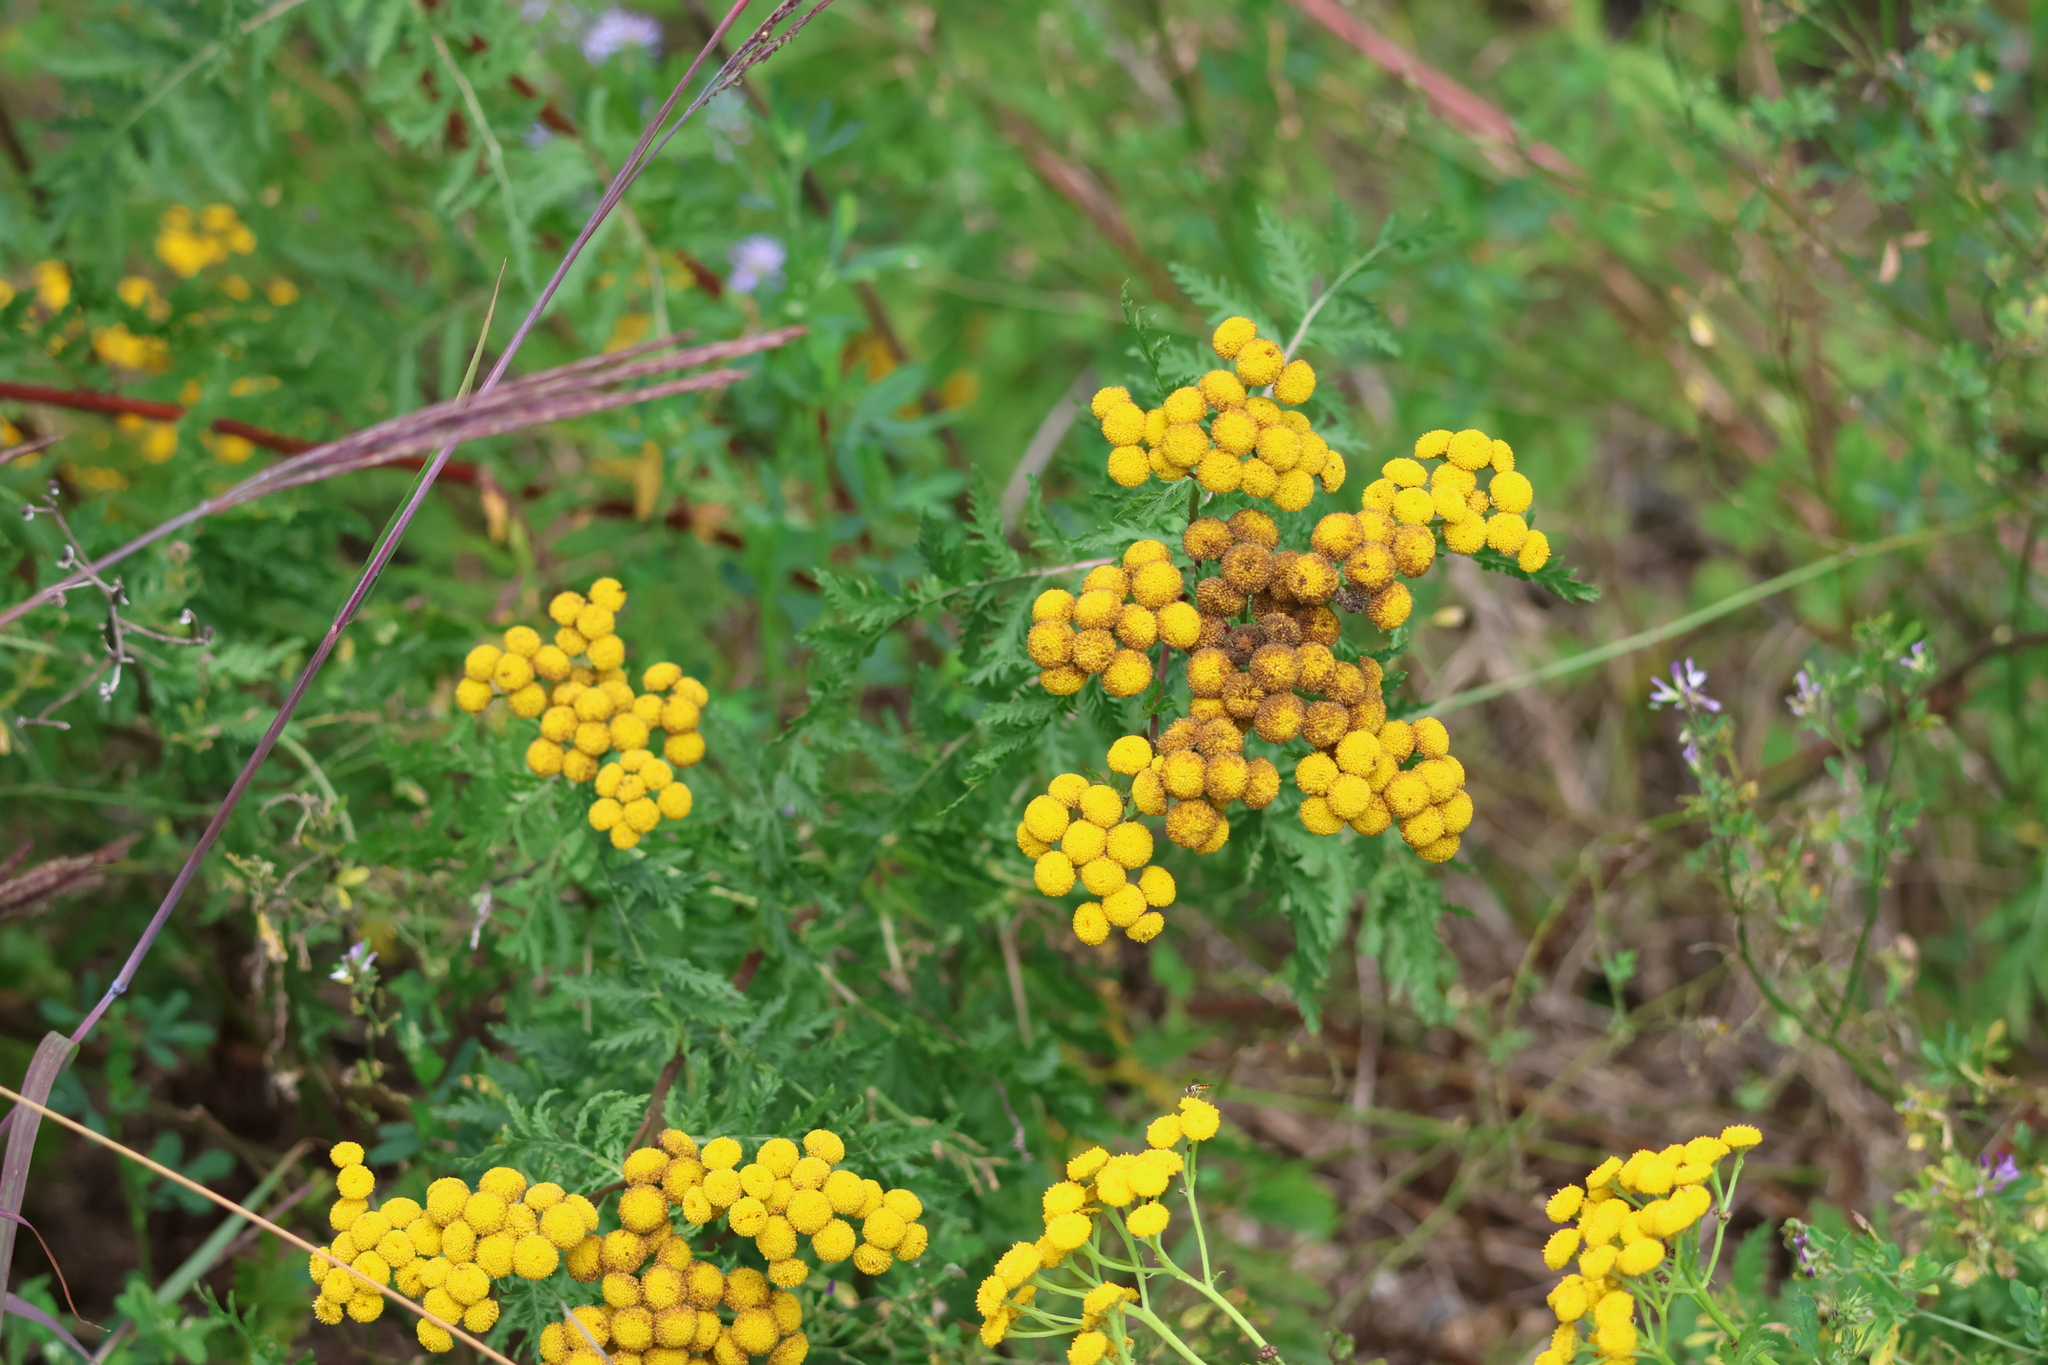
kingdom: Plantae
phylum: Tracheophyta
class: Magnoliopsida
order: Asterales
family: Asteraceae
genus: Tanacetum
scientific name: Tanacetum vulgare
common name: Common tansy
